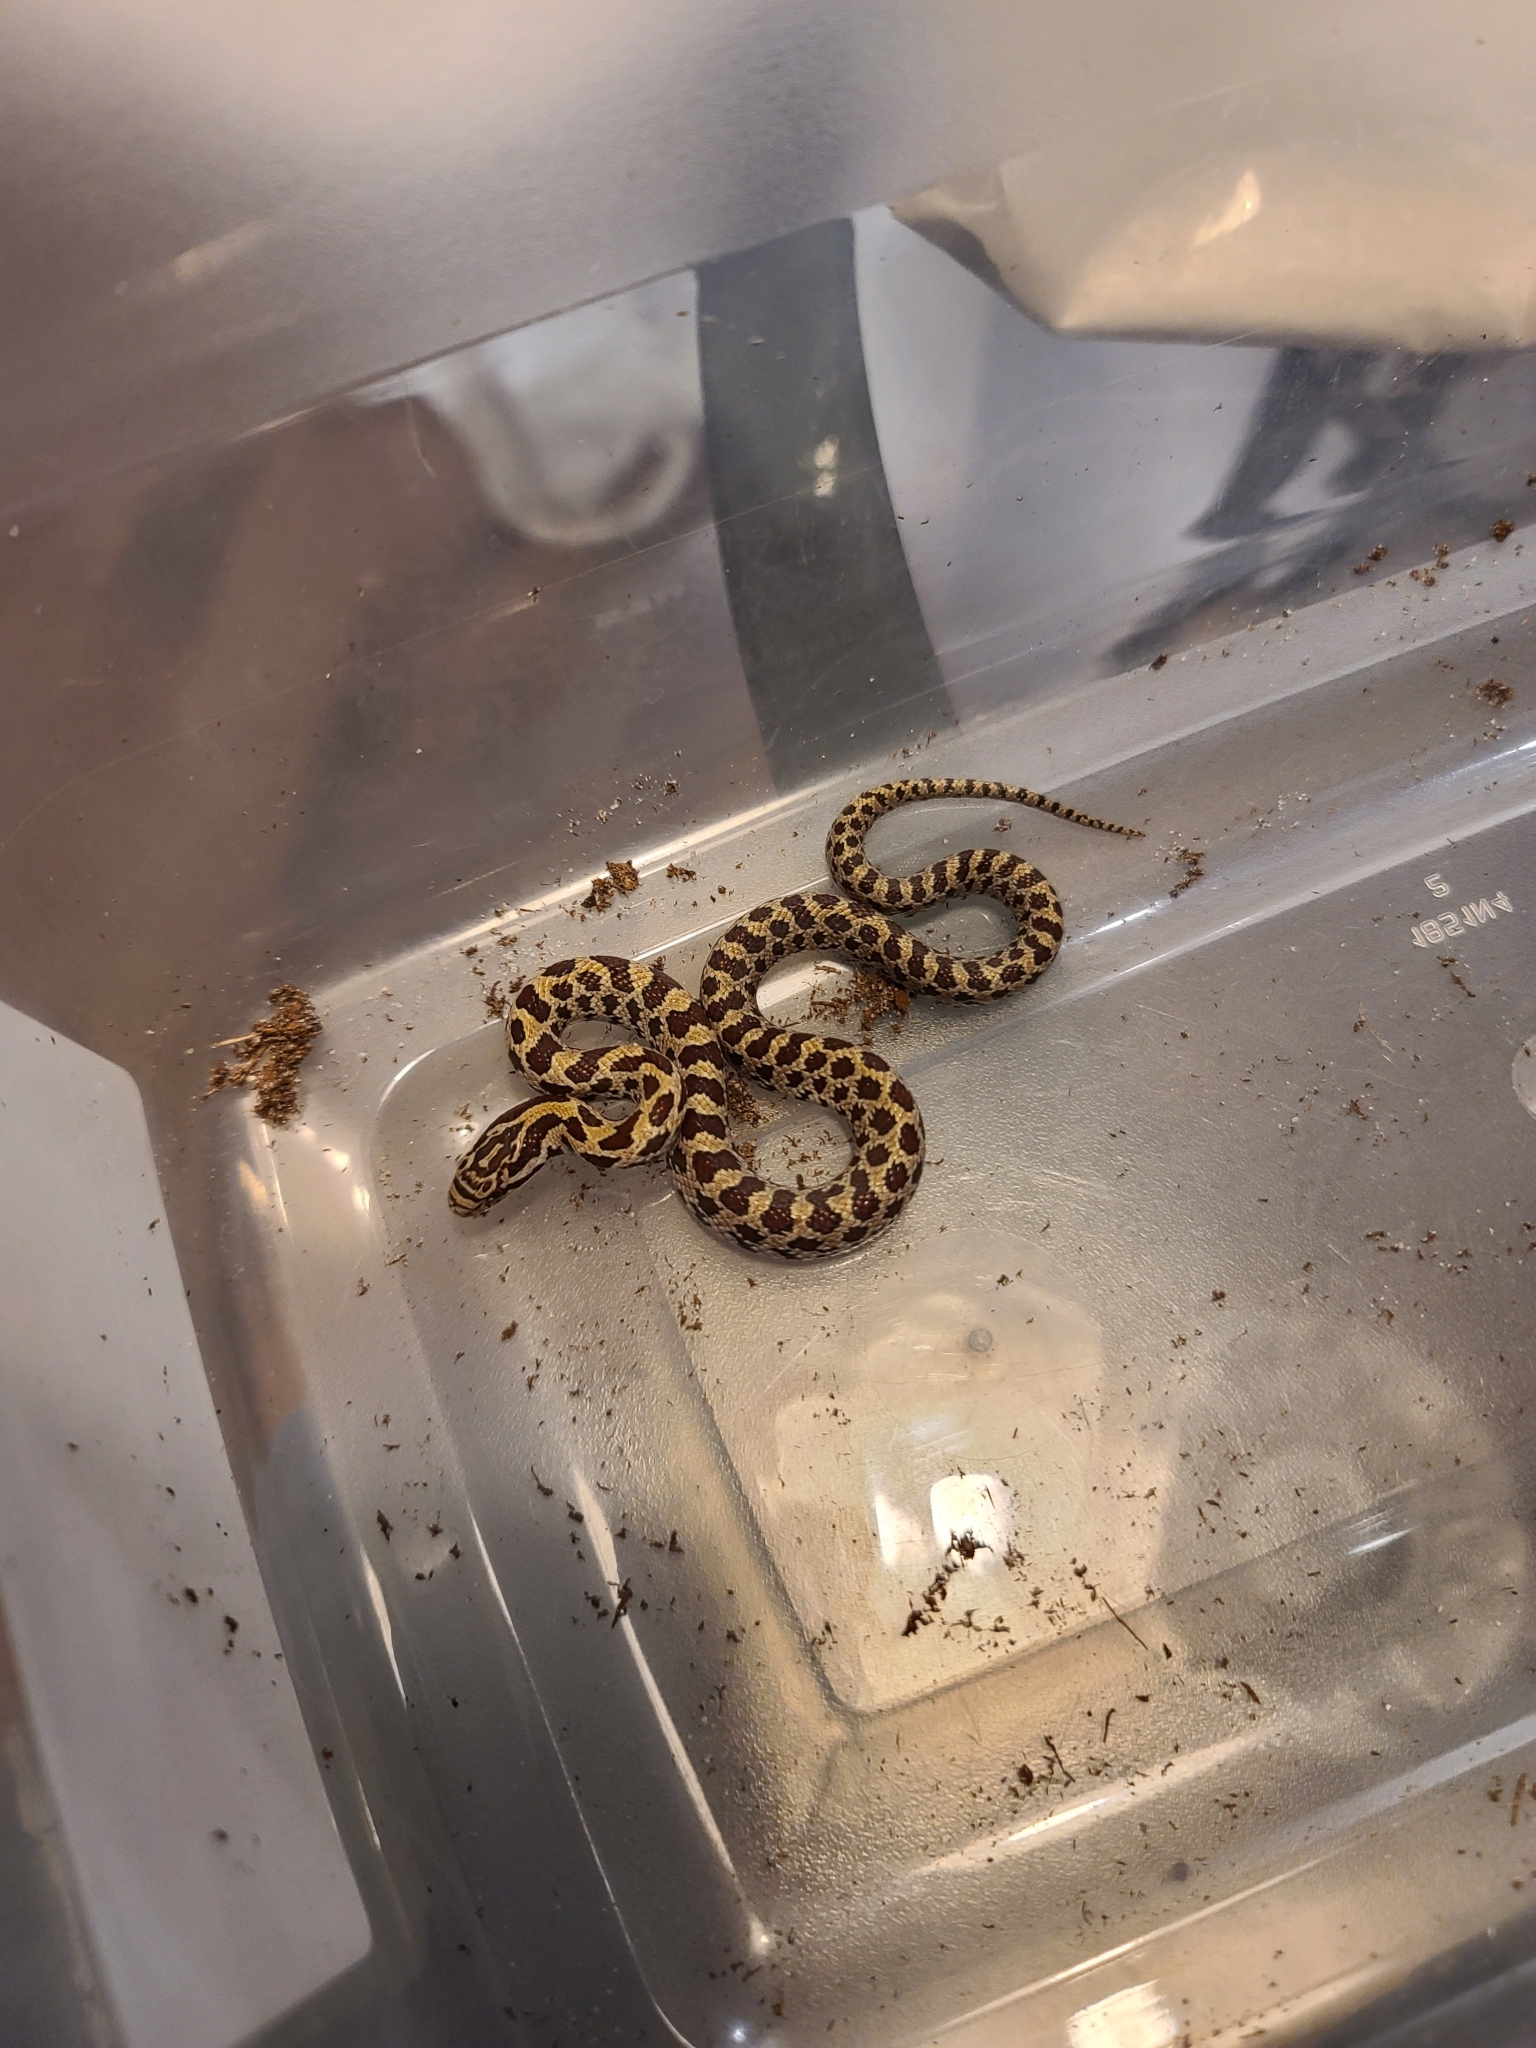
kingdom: Animalia
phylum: Chordata
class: Squamata
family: Colubridae
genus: Lampropeltis
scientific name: Lampropeltis calligaster
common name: Prairie kingsnake
